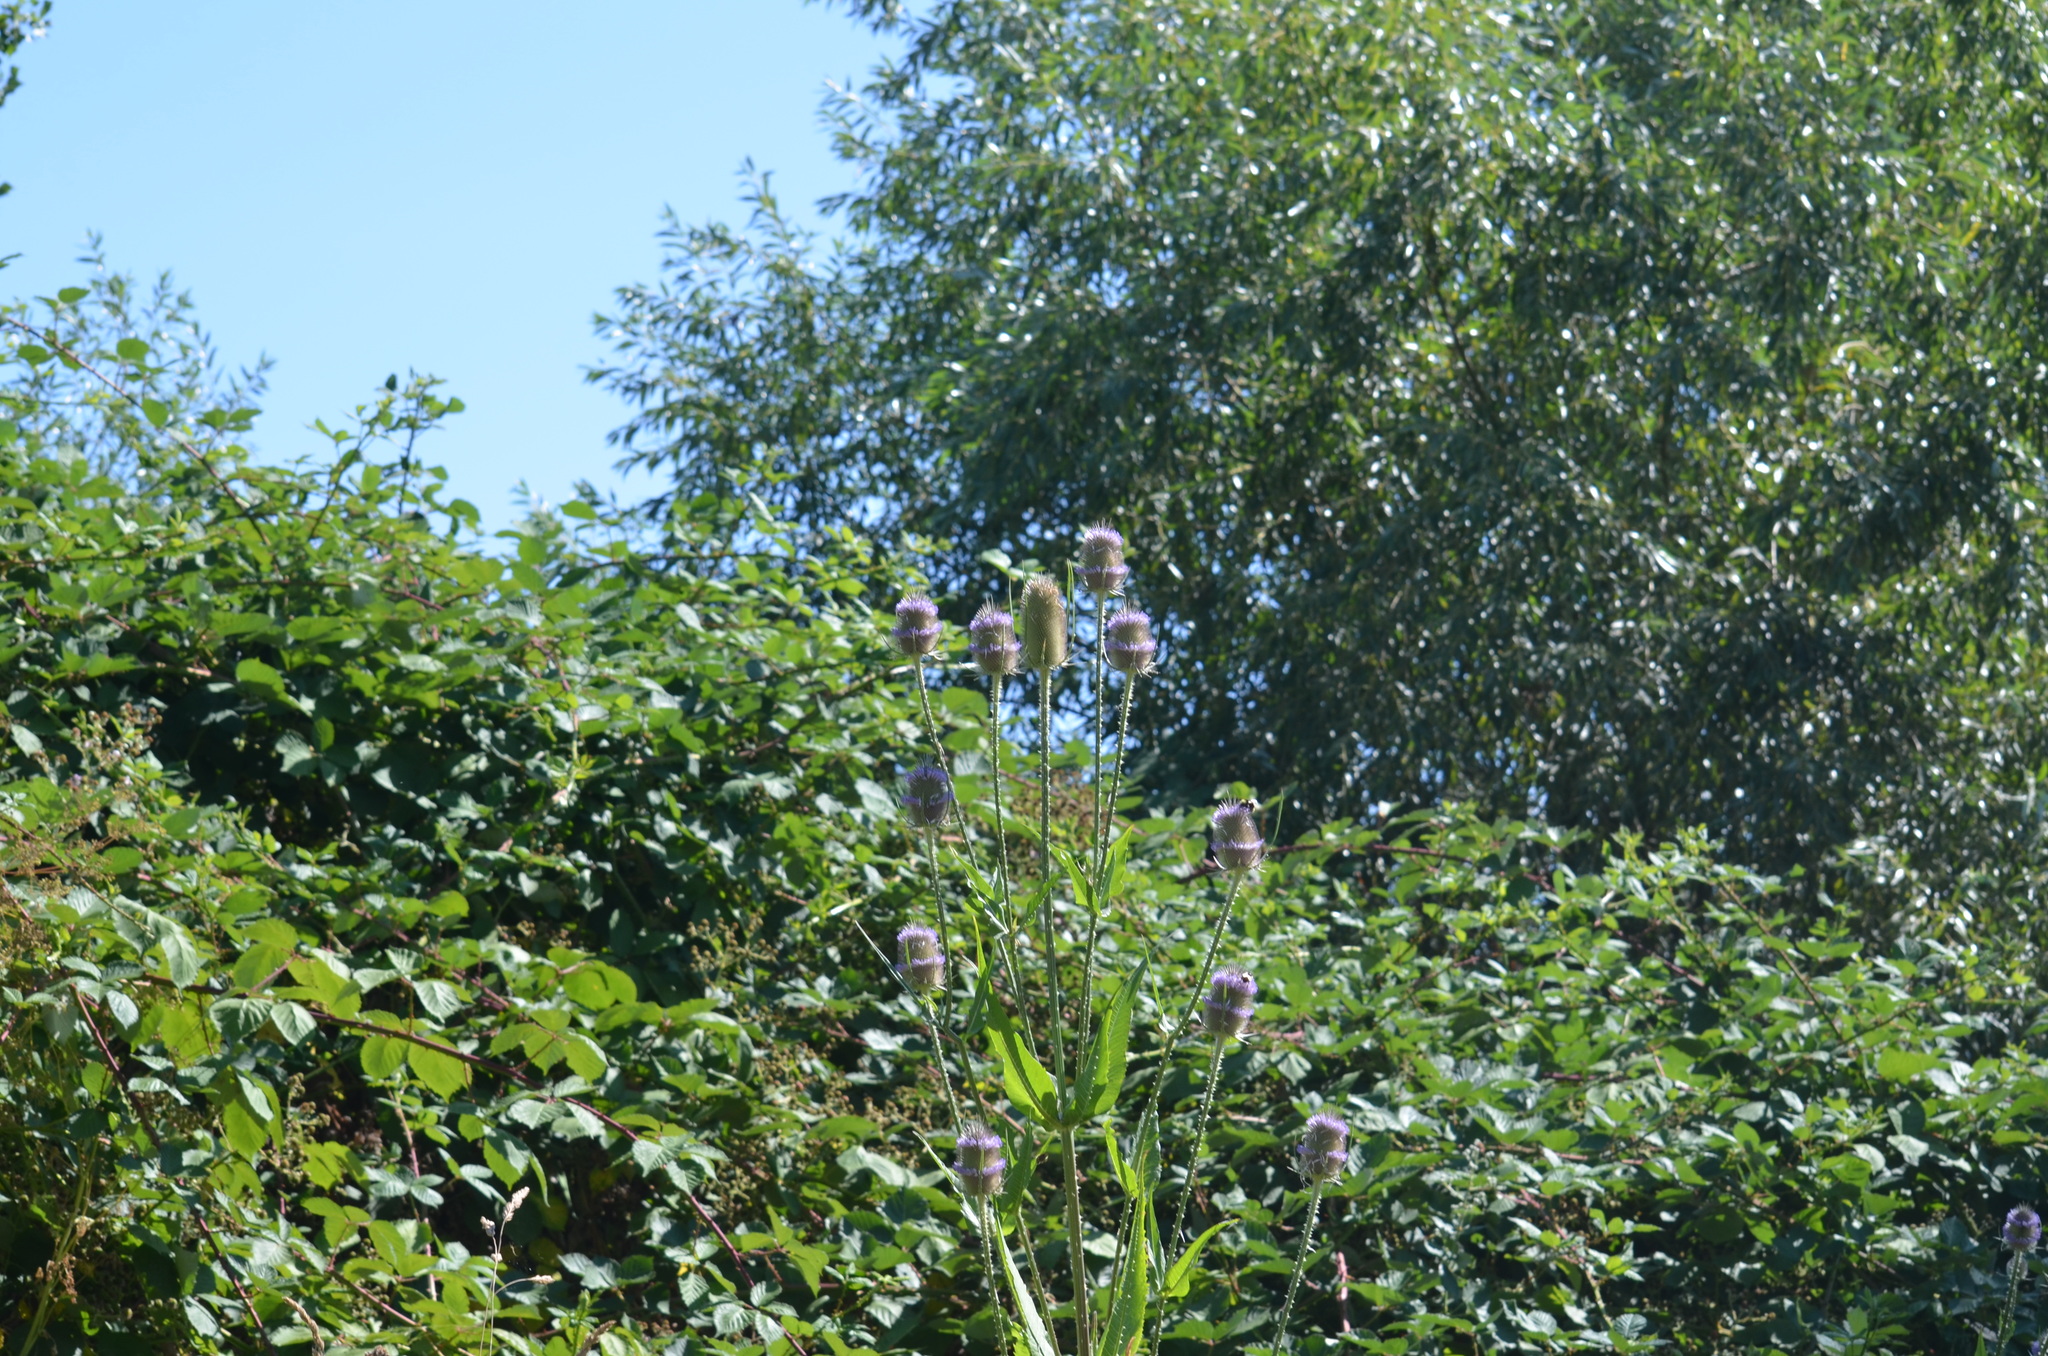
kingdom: Plantae
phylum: Tracheophyta
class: Magnoliopsida
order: Dipsacales
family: Caprifoliaceae
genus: Dipsacus
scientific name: Dipsacus fullonum
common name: Teasel
